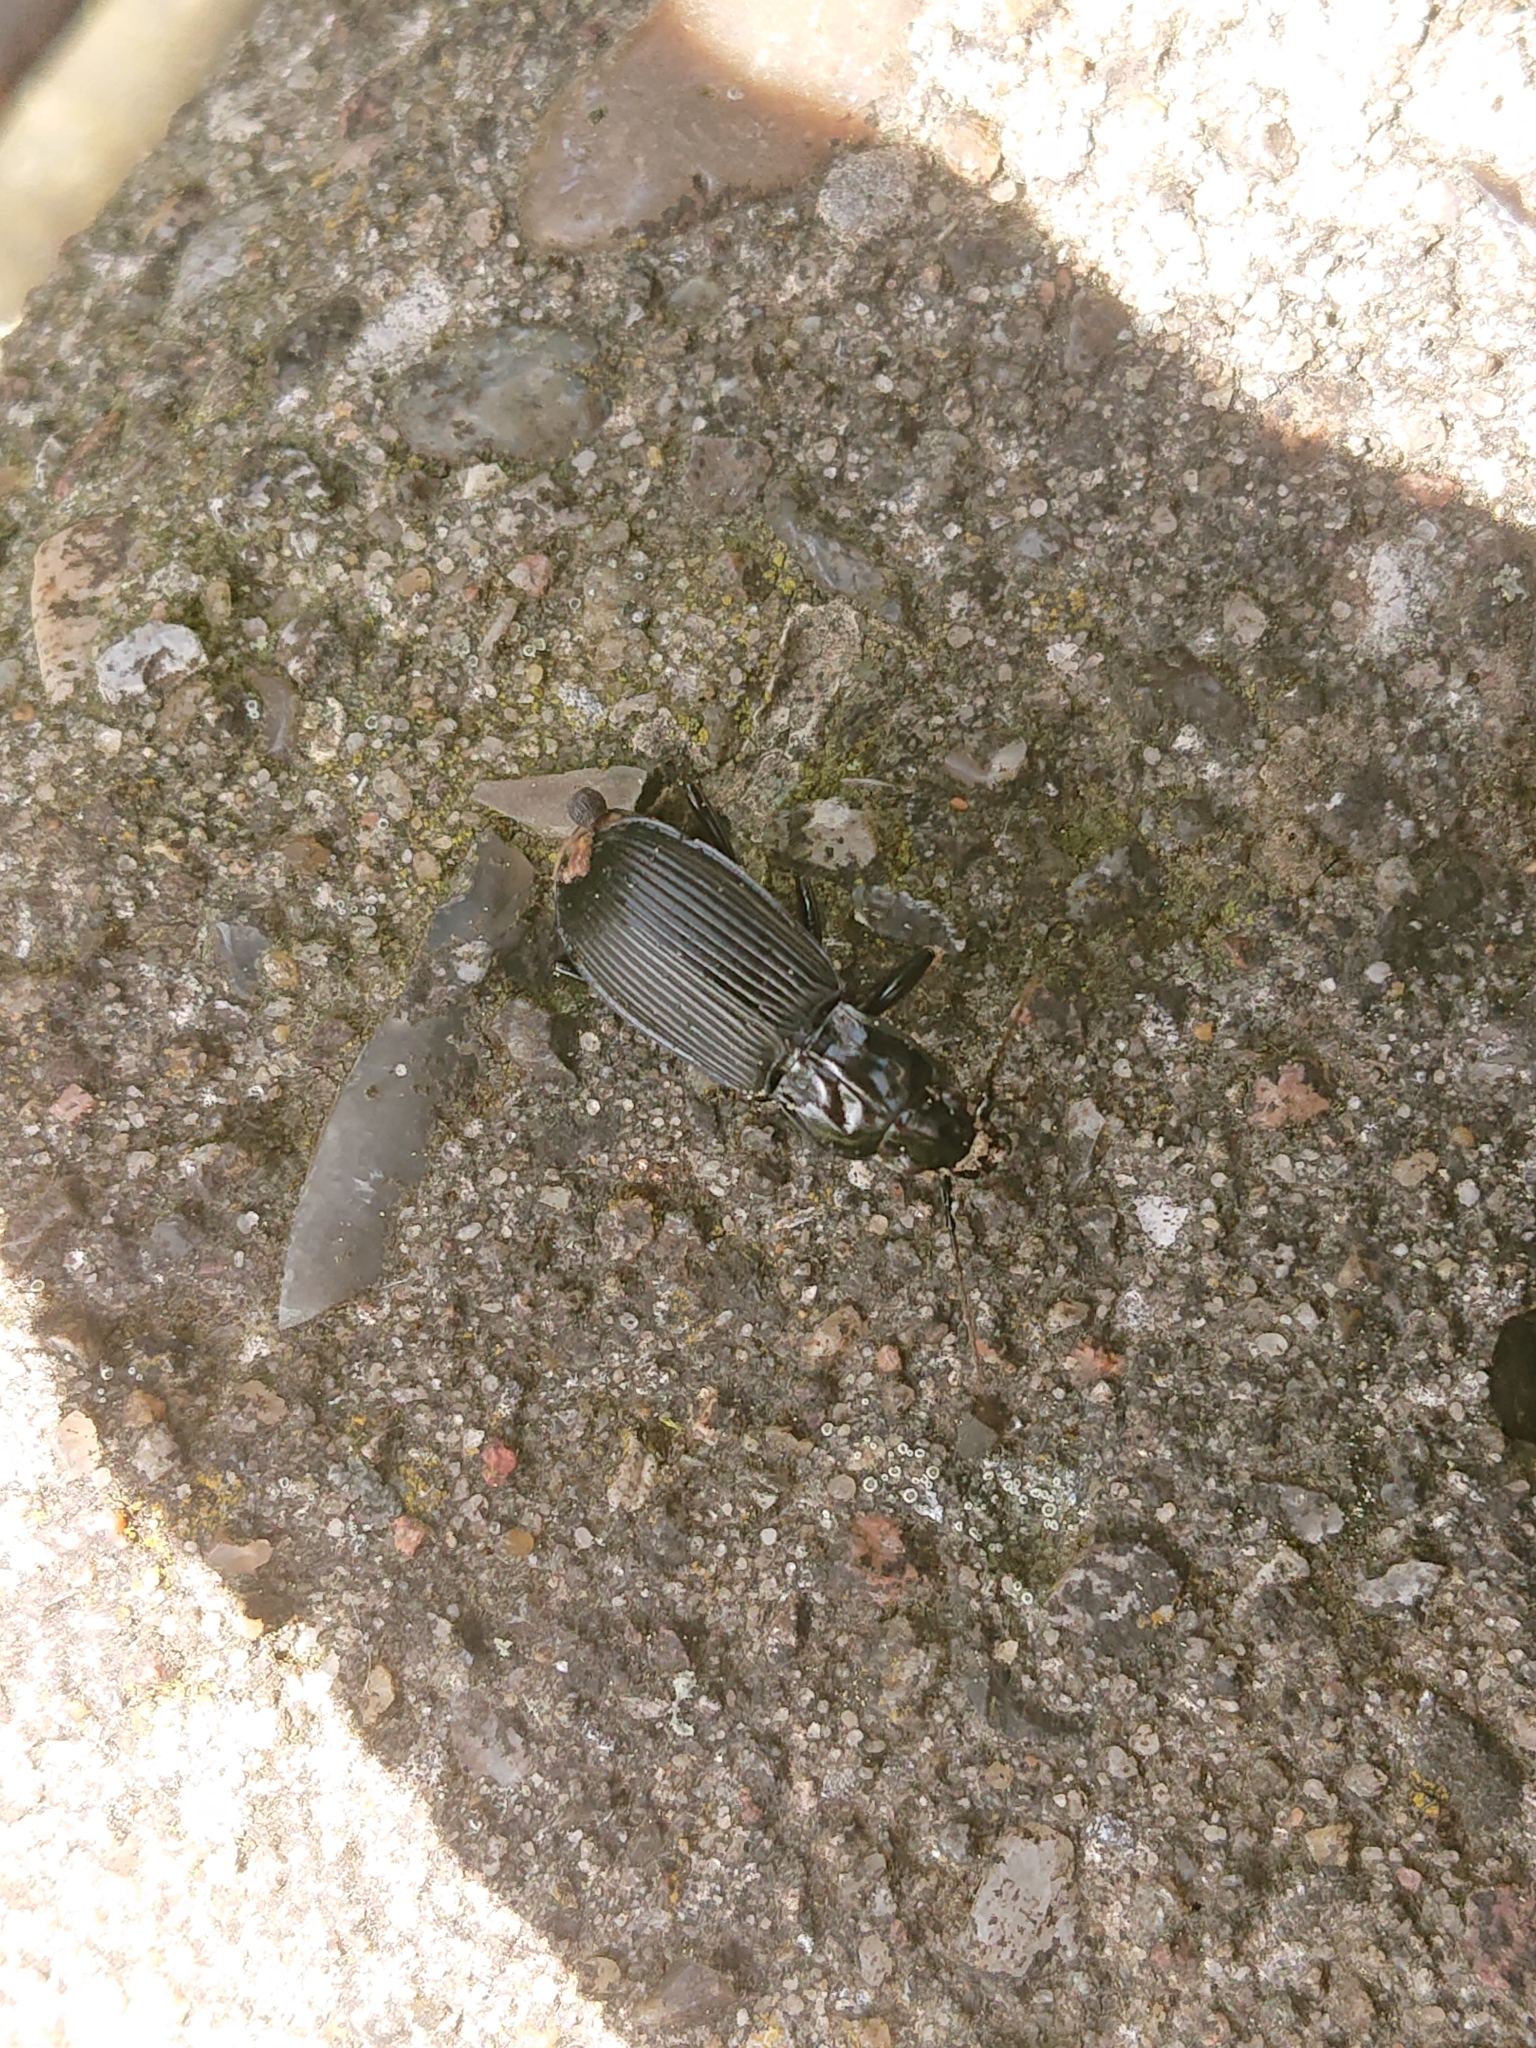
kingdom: Animalia
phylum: Arthropoda
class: Insecta
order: Coleoptera
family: Carabidae
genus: Pterostichus
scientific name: Pterostichus niger
